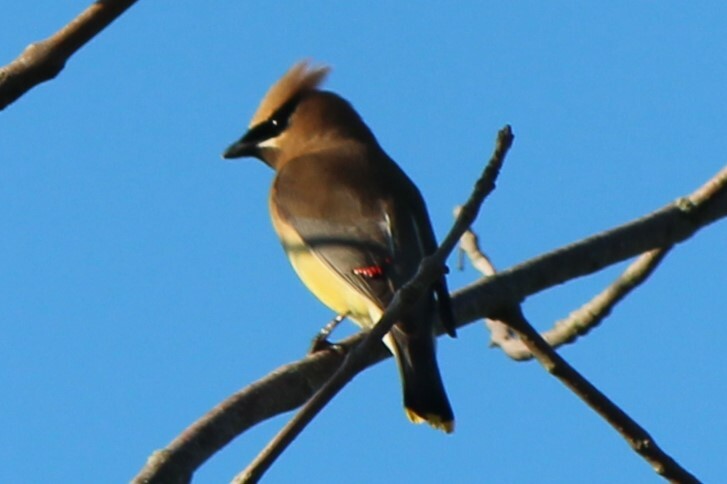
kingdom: Animalia
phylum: Chordata
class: Aves
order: Passeriformes
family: Bombycillidae
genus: Bombycilla
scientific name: Bombycilla cedrorum
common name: Cedar waxwing
